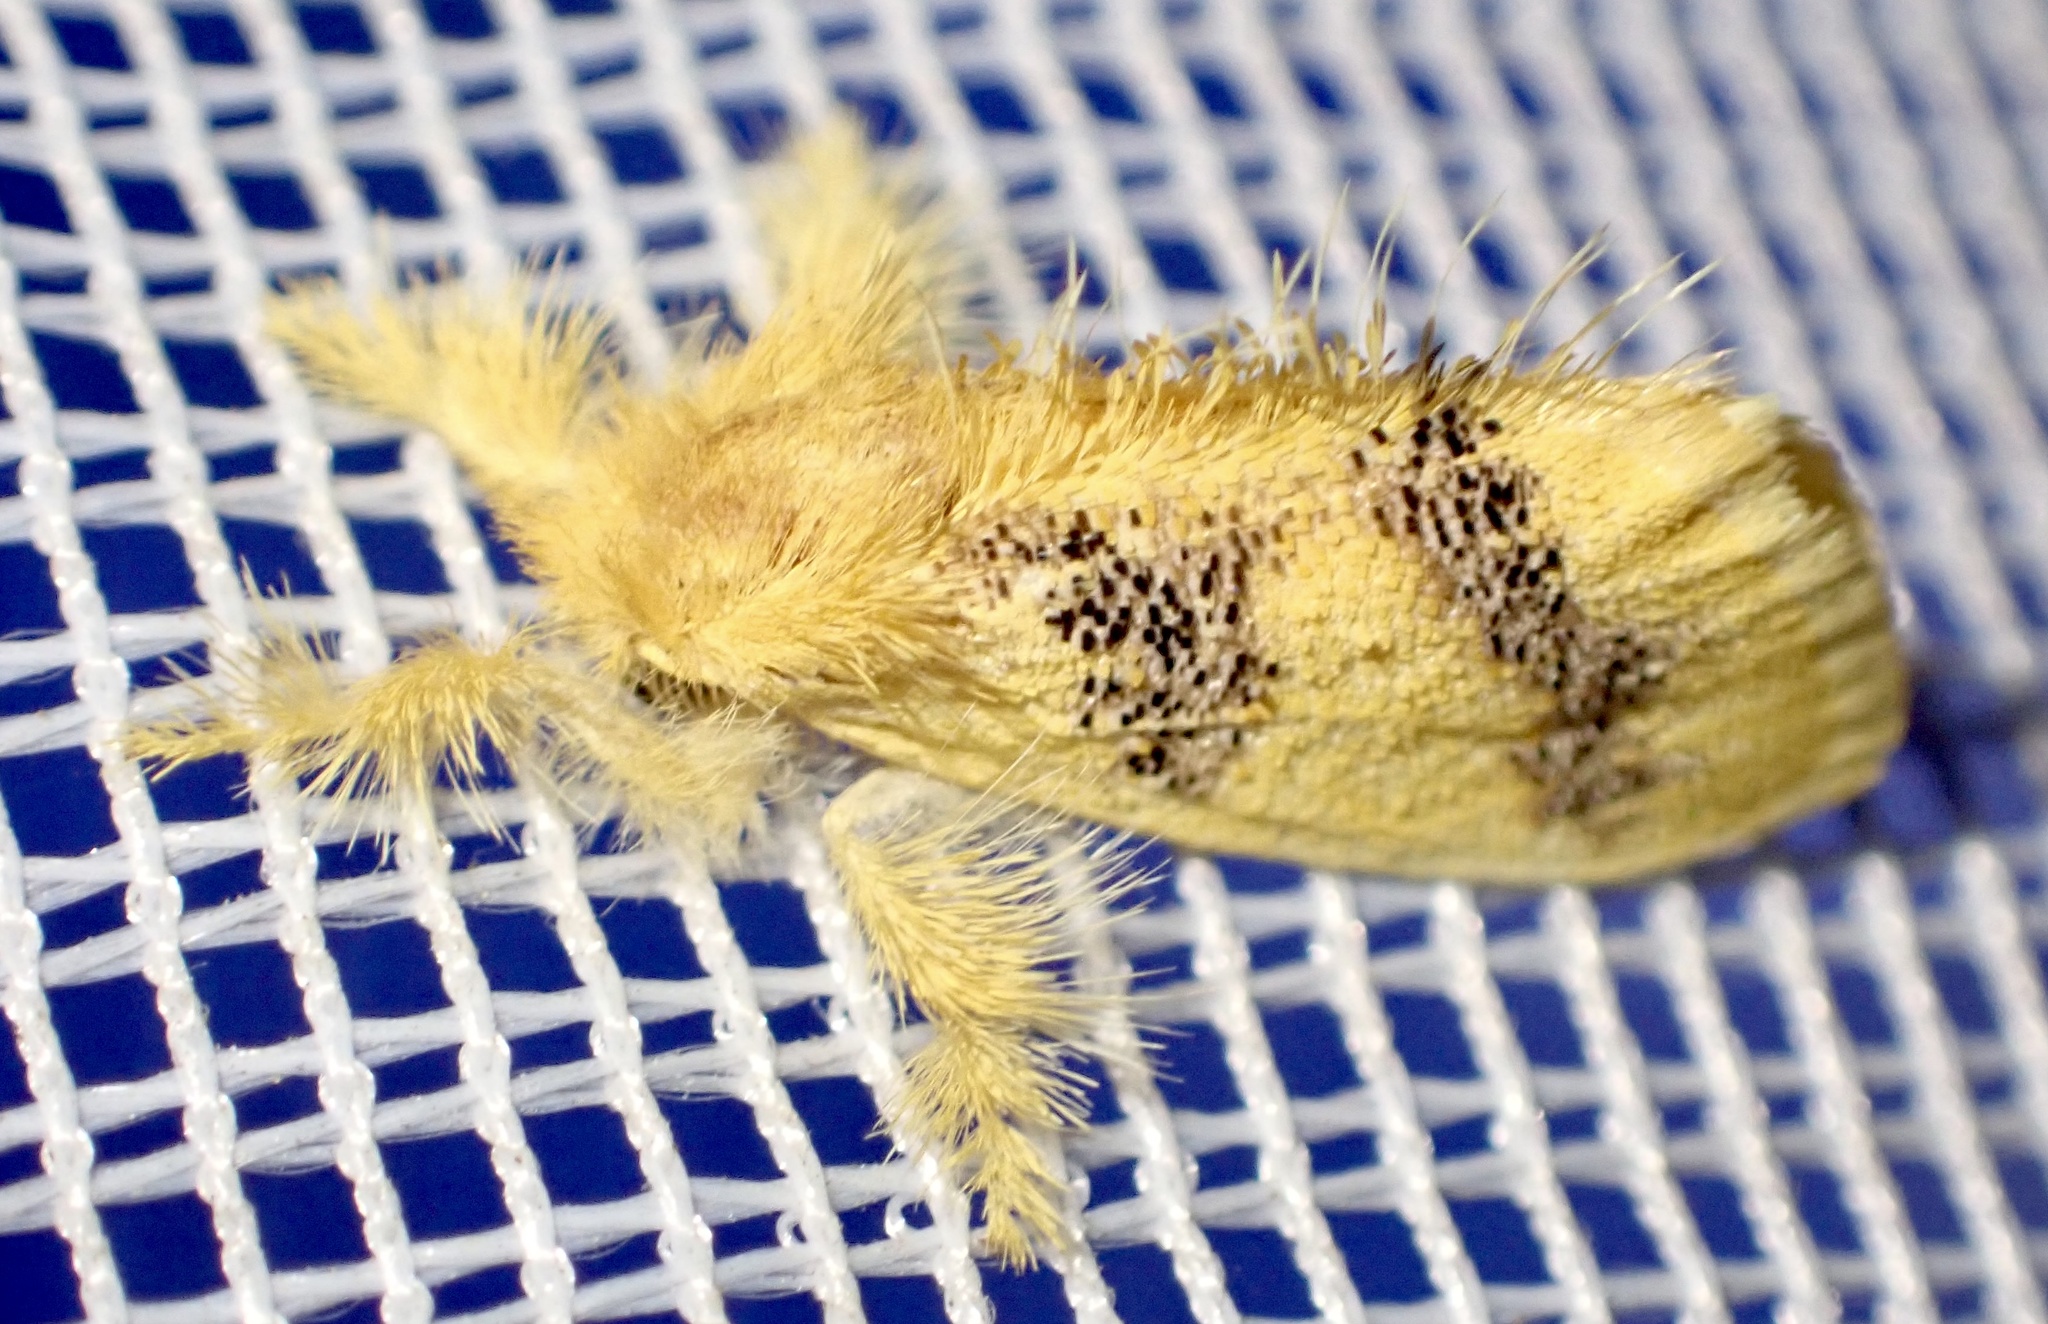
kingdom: Animalia
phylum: Arthropoda
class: Insecta
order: Lepidoptera
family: Erebidae
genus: Euproctis
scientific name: Euproctis aethiopica
